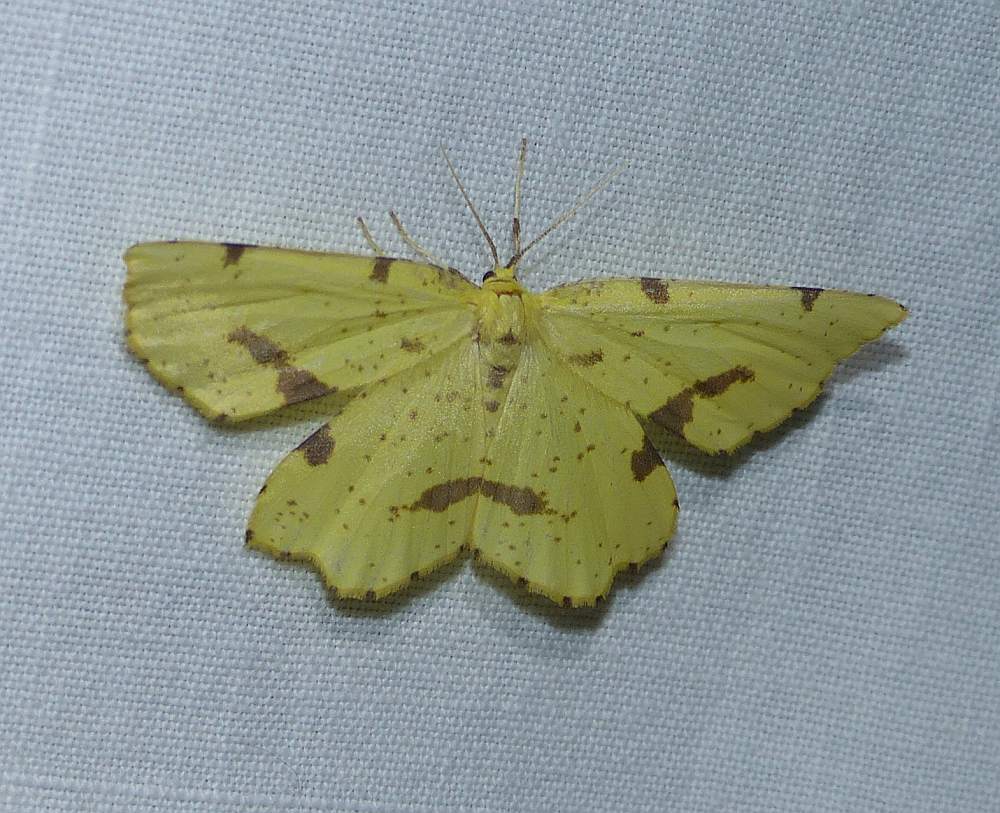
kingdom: Animalia
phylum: Arthropoda
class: Insecta
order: Lepidoptera
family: Geometridae
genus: Xanthotype
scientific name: Xanthotype
